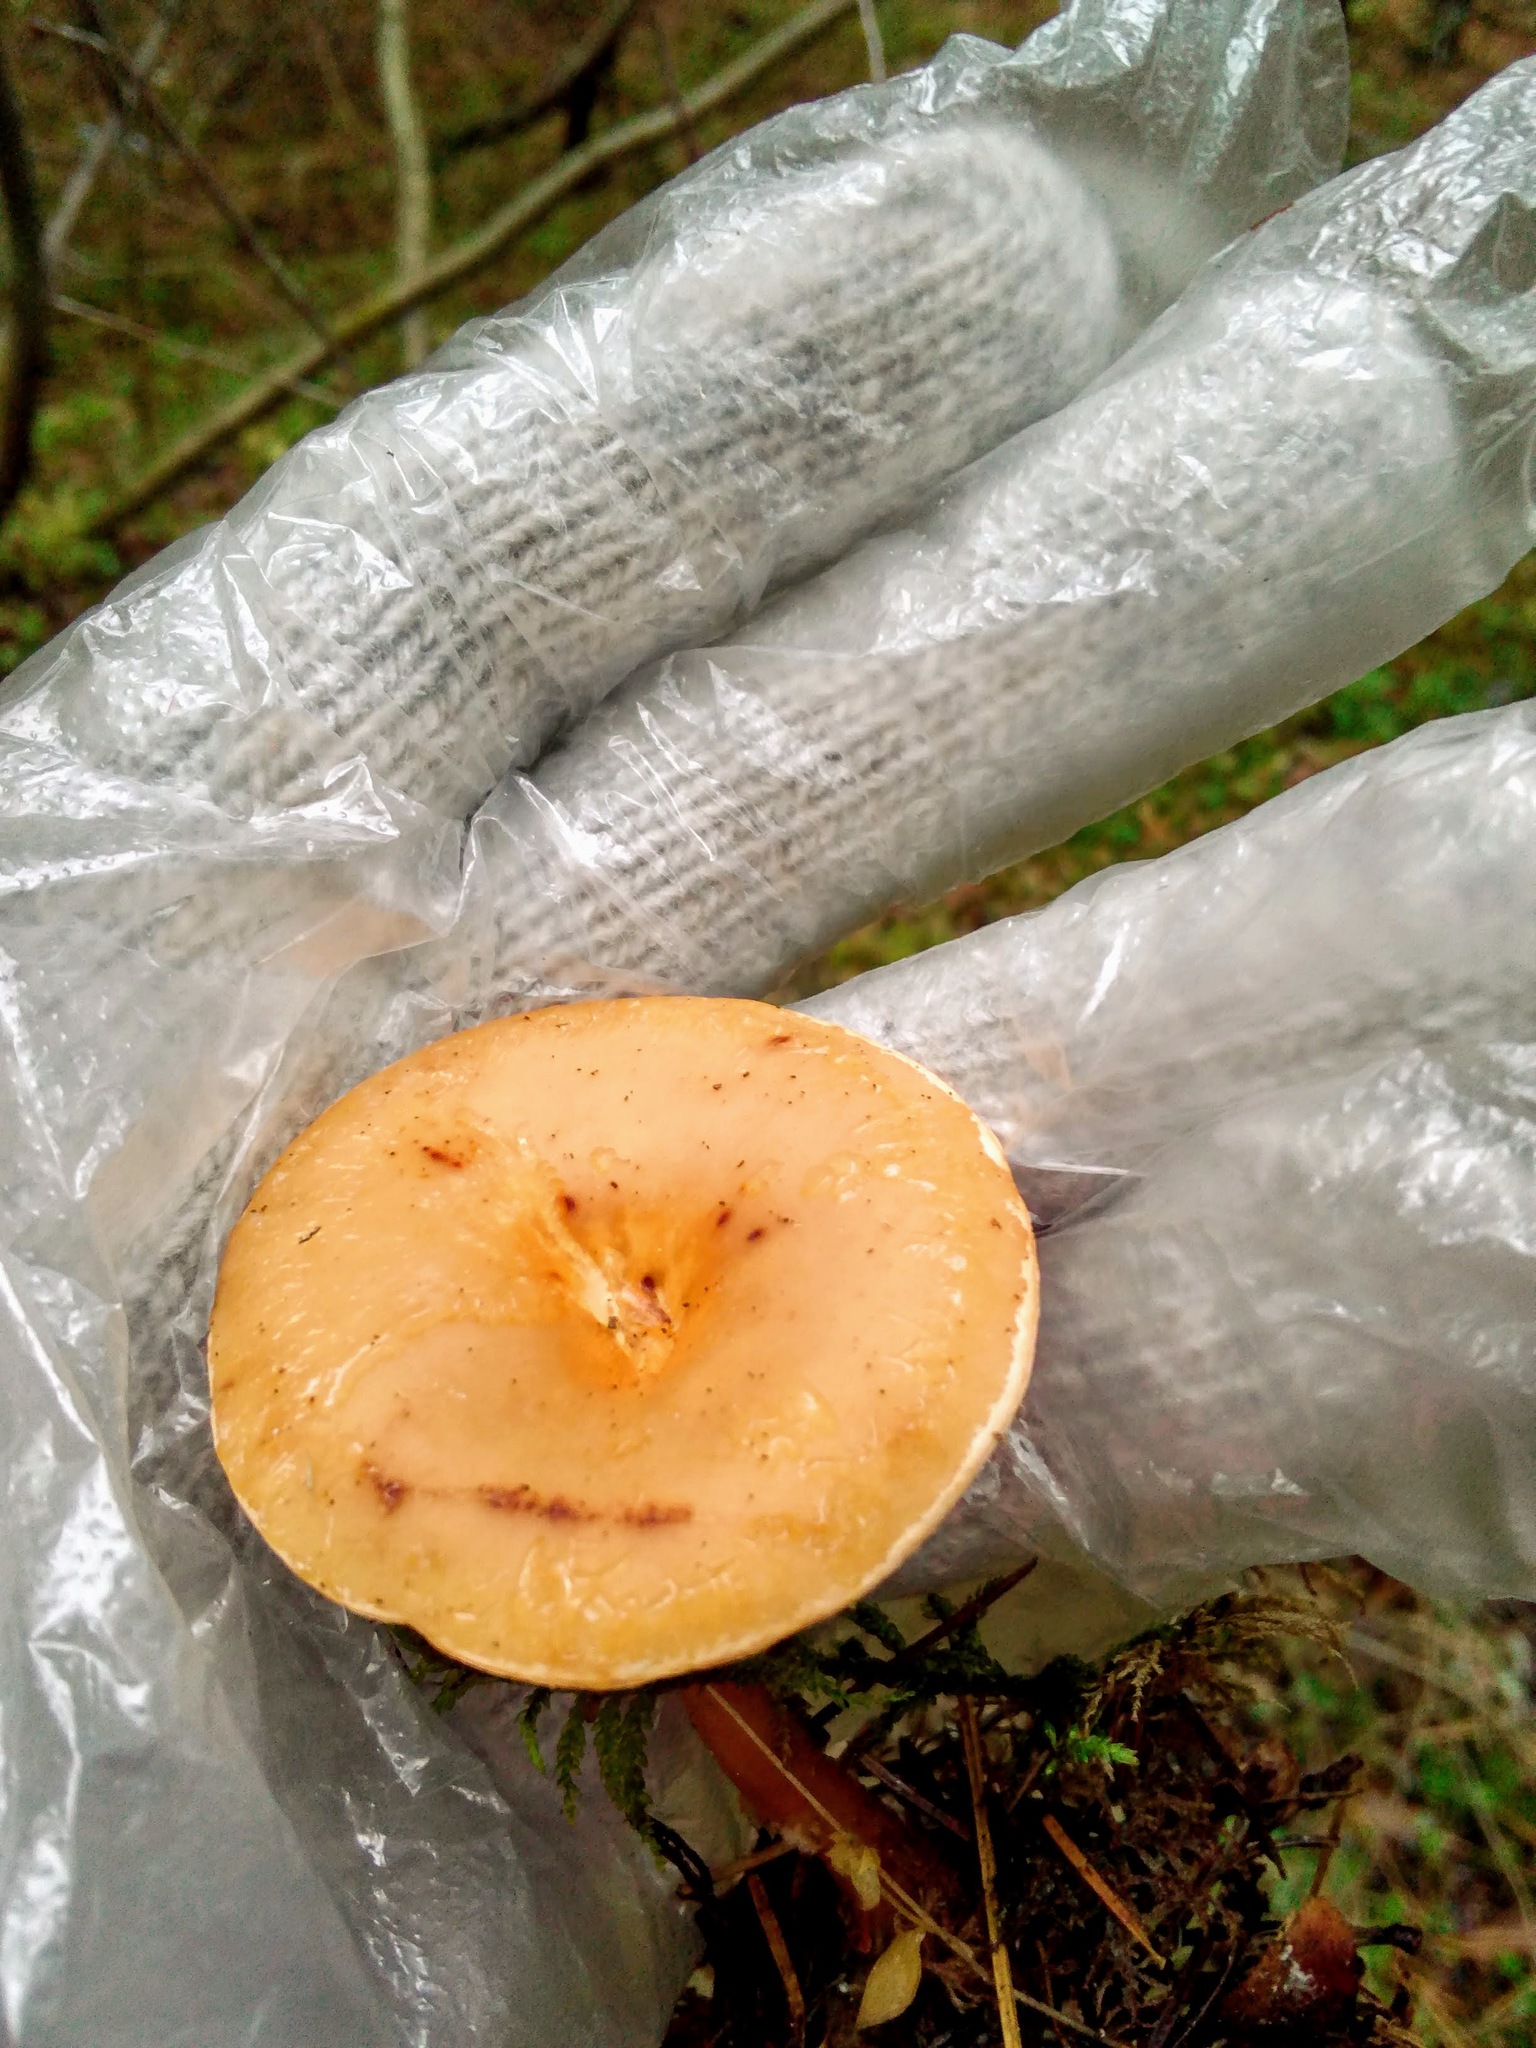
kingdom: Fungi
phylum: Basidiomycota
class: Agaricomycetes
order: Agaricales
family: Tricholomataceae
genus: Infundibulicybe
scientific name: Infundibulicybe gibba
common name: Common funnel
